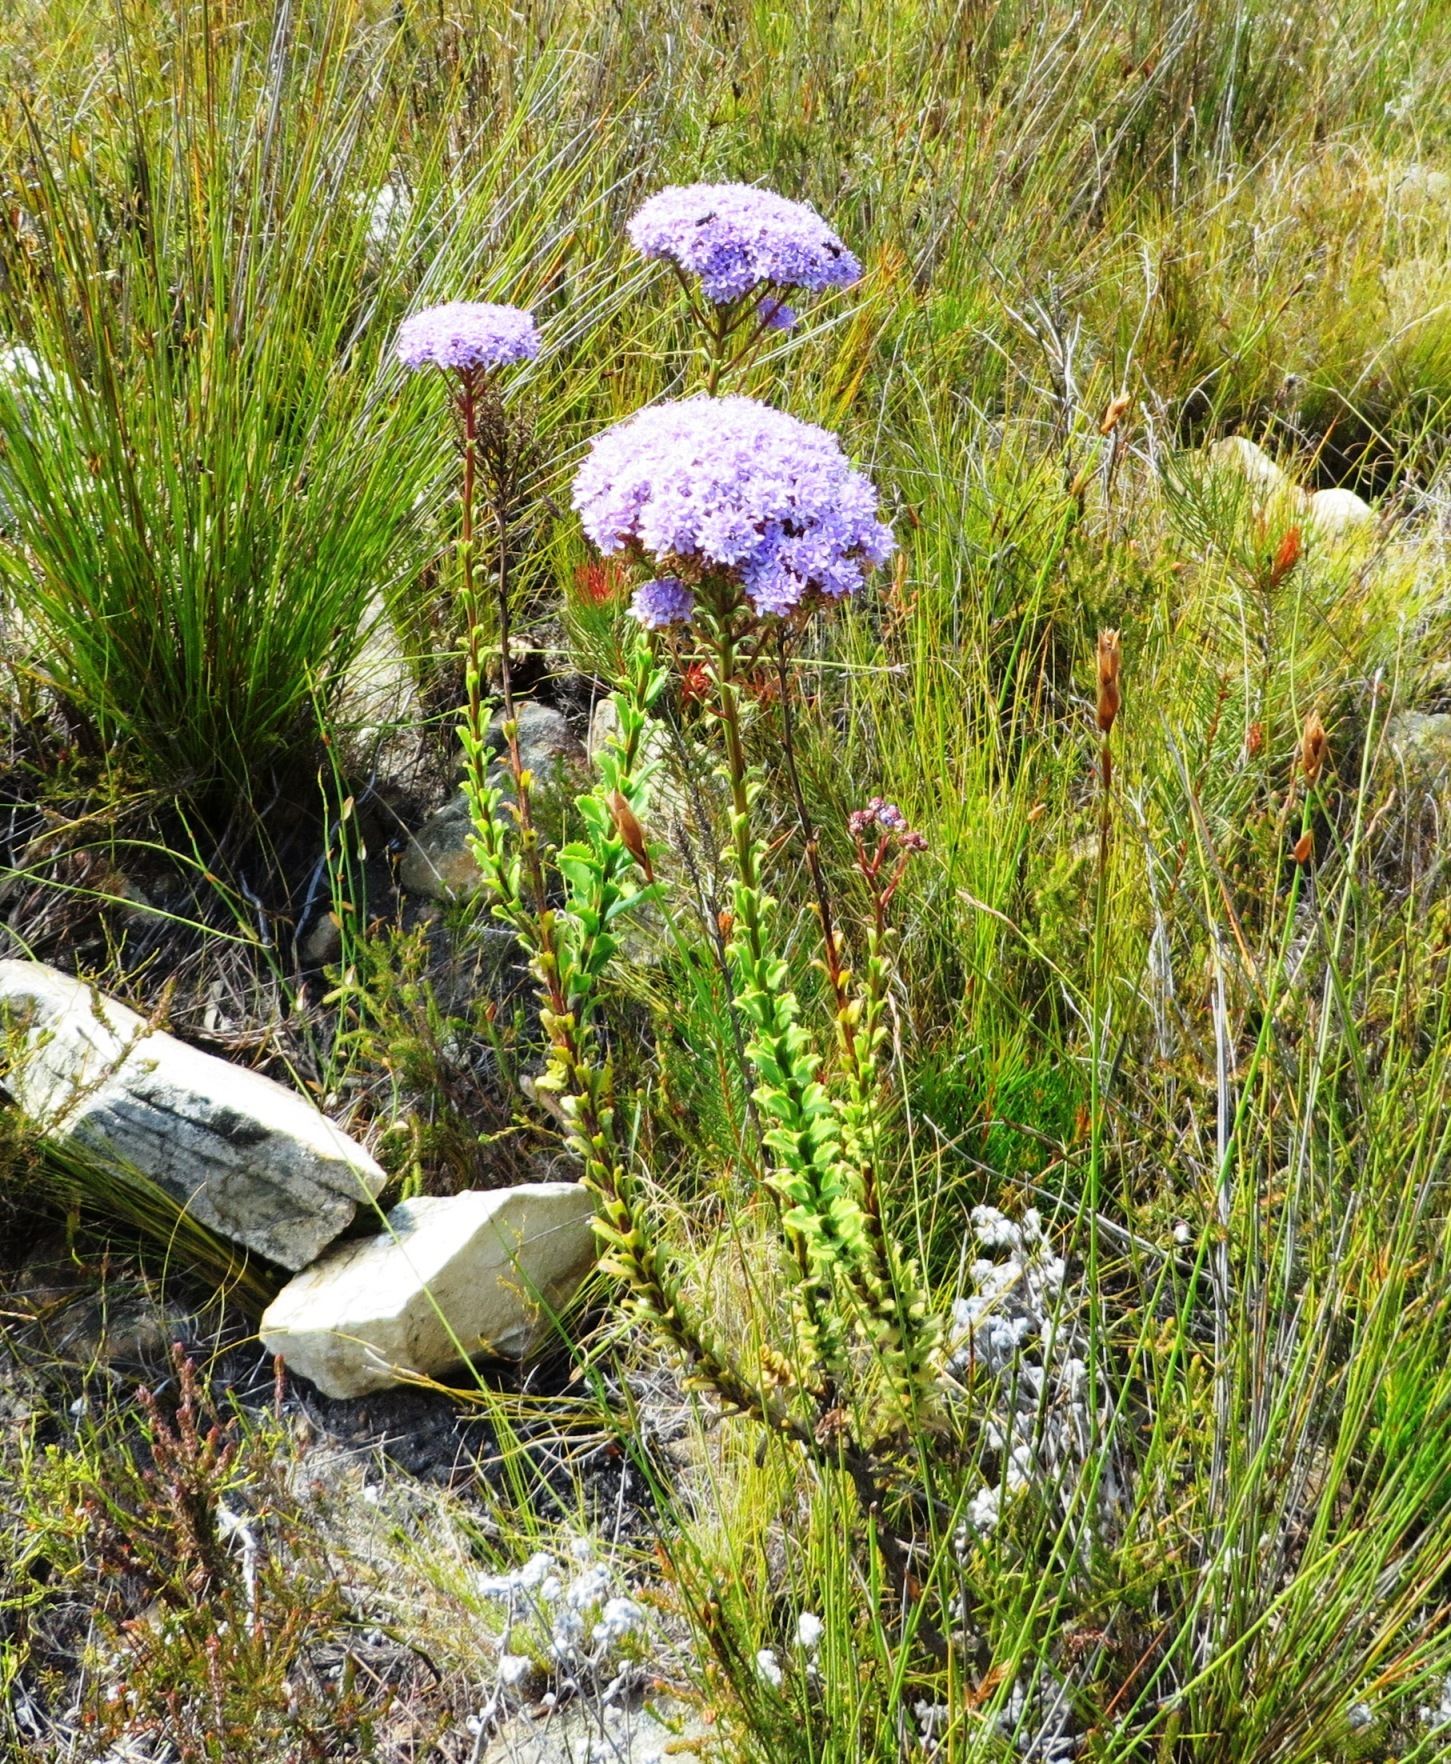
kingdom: Plantae
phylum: Tracheophyta
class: Magnoliopsida
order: Lamiales
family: Scrophulariaceae
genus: Pseudoselago
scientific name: Pseudoselago serrata
